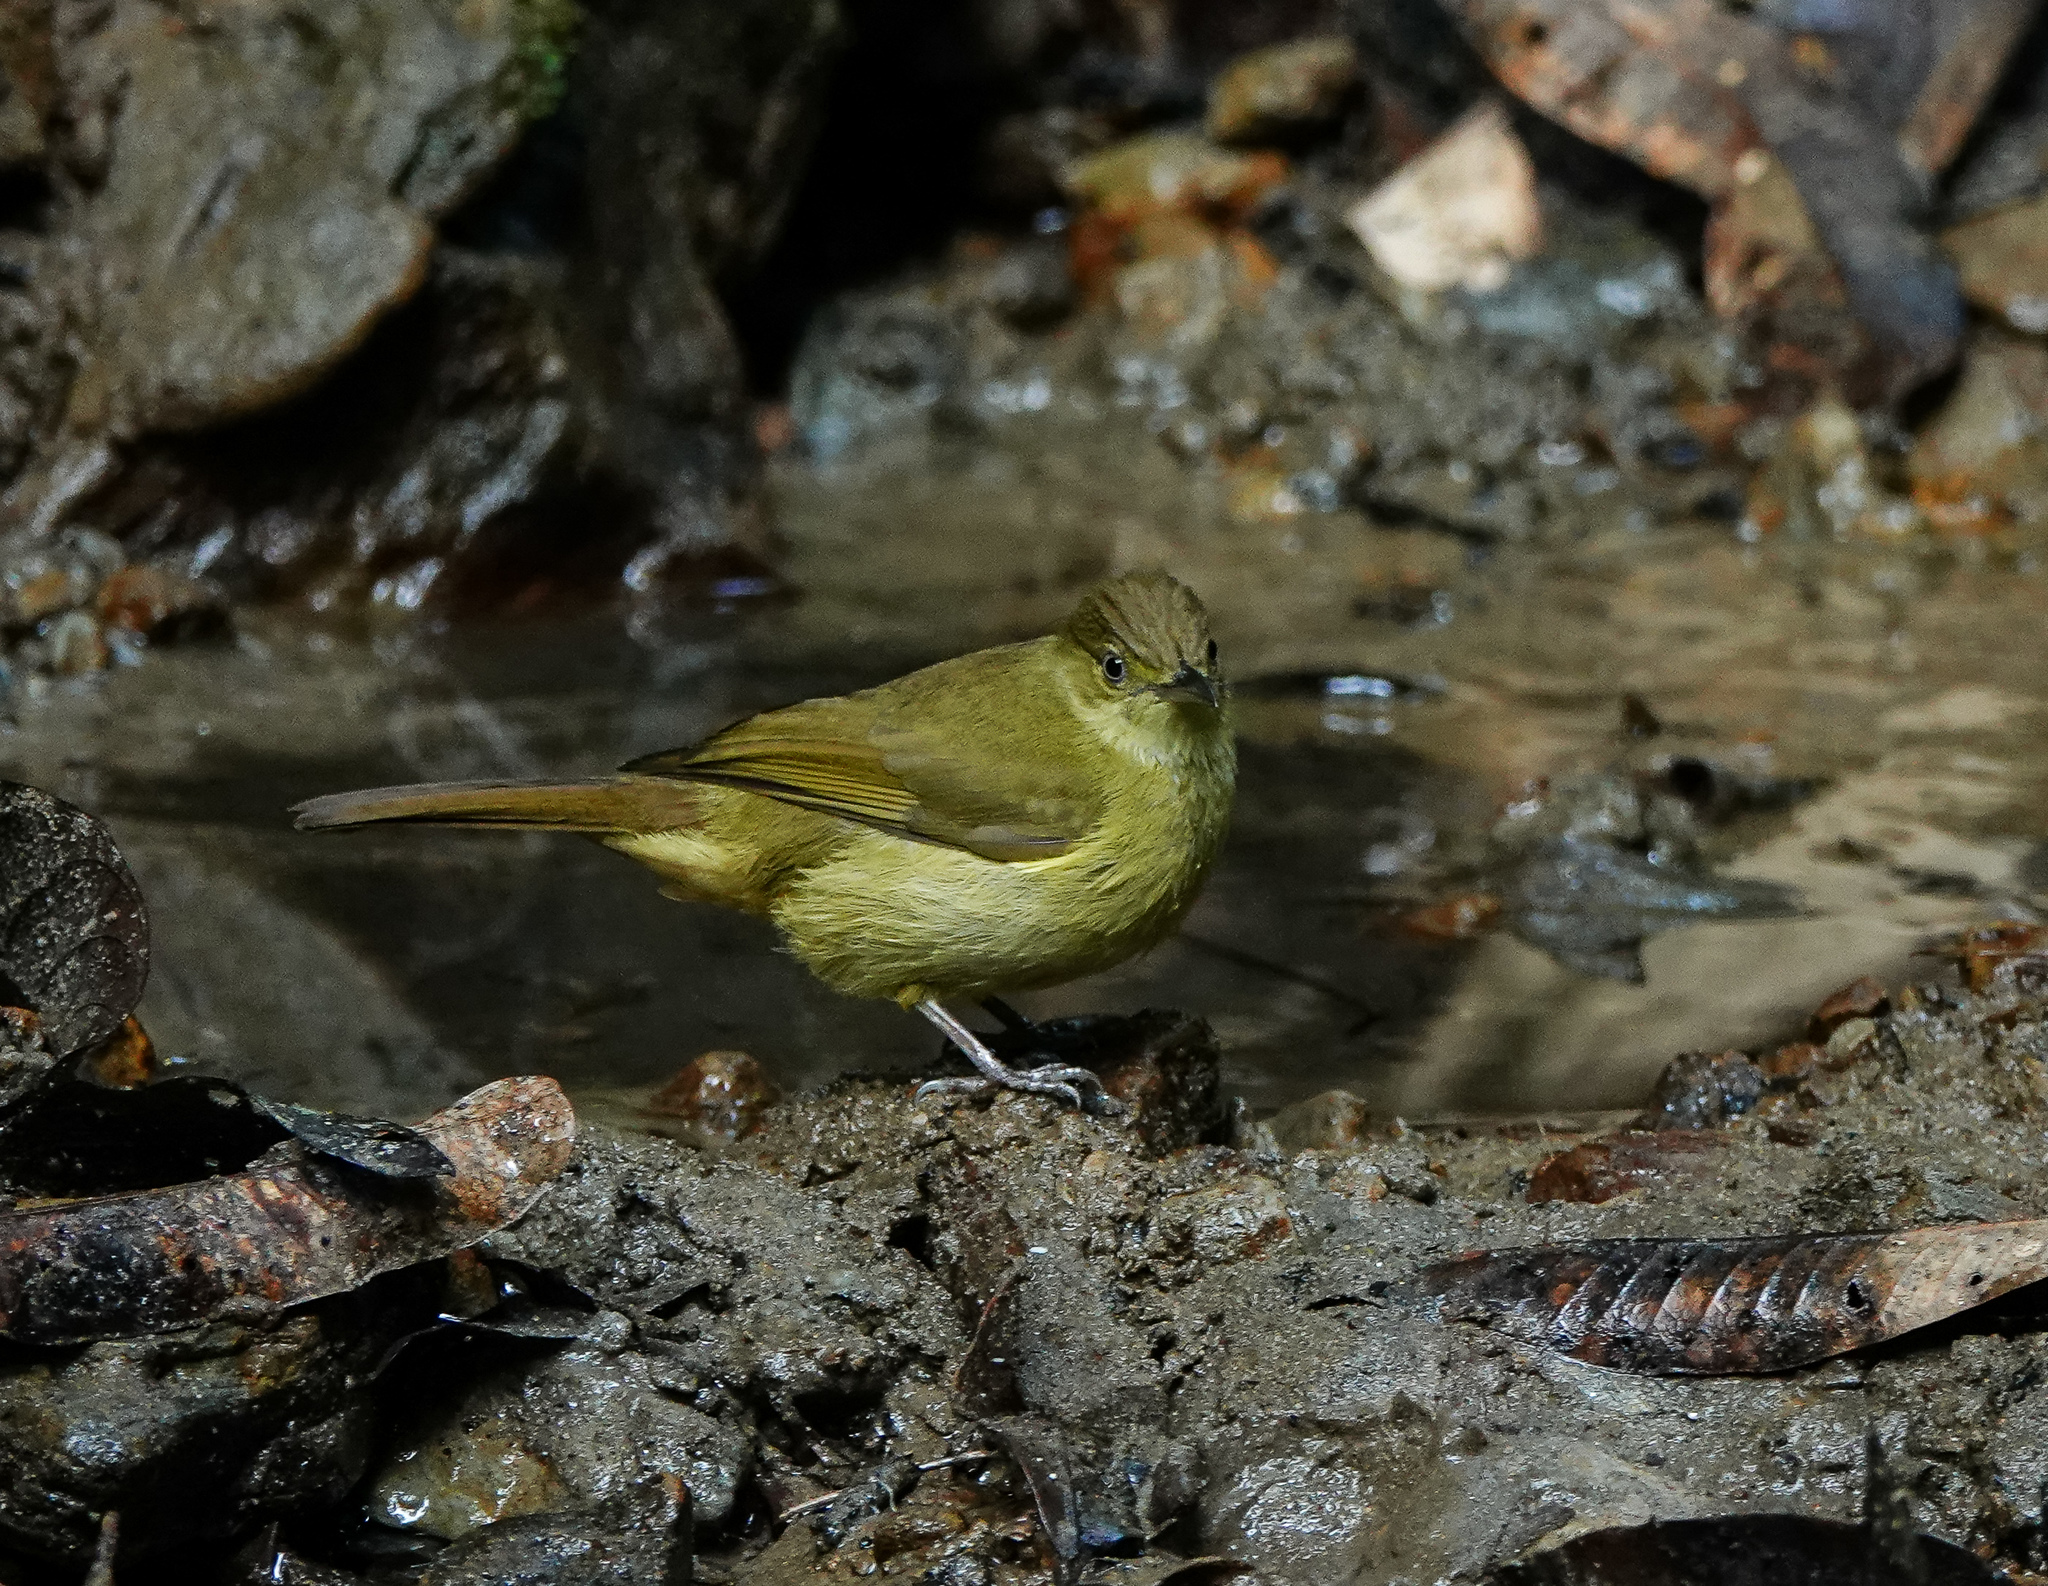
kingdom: Animalia
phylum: Chordata
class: Aves
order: Passeriformes
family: Pycnonotidae
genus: Iole
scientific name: Iole virescens
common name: Olive bulbul
